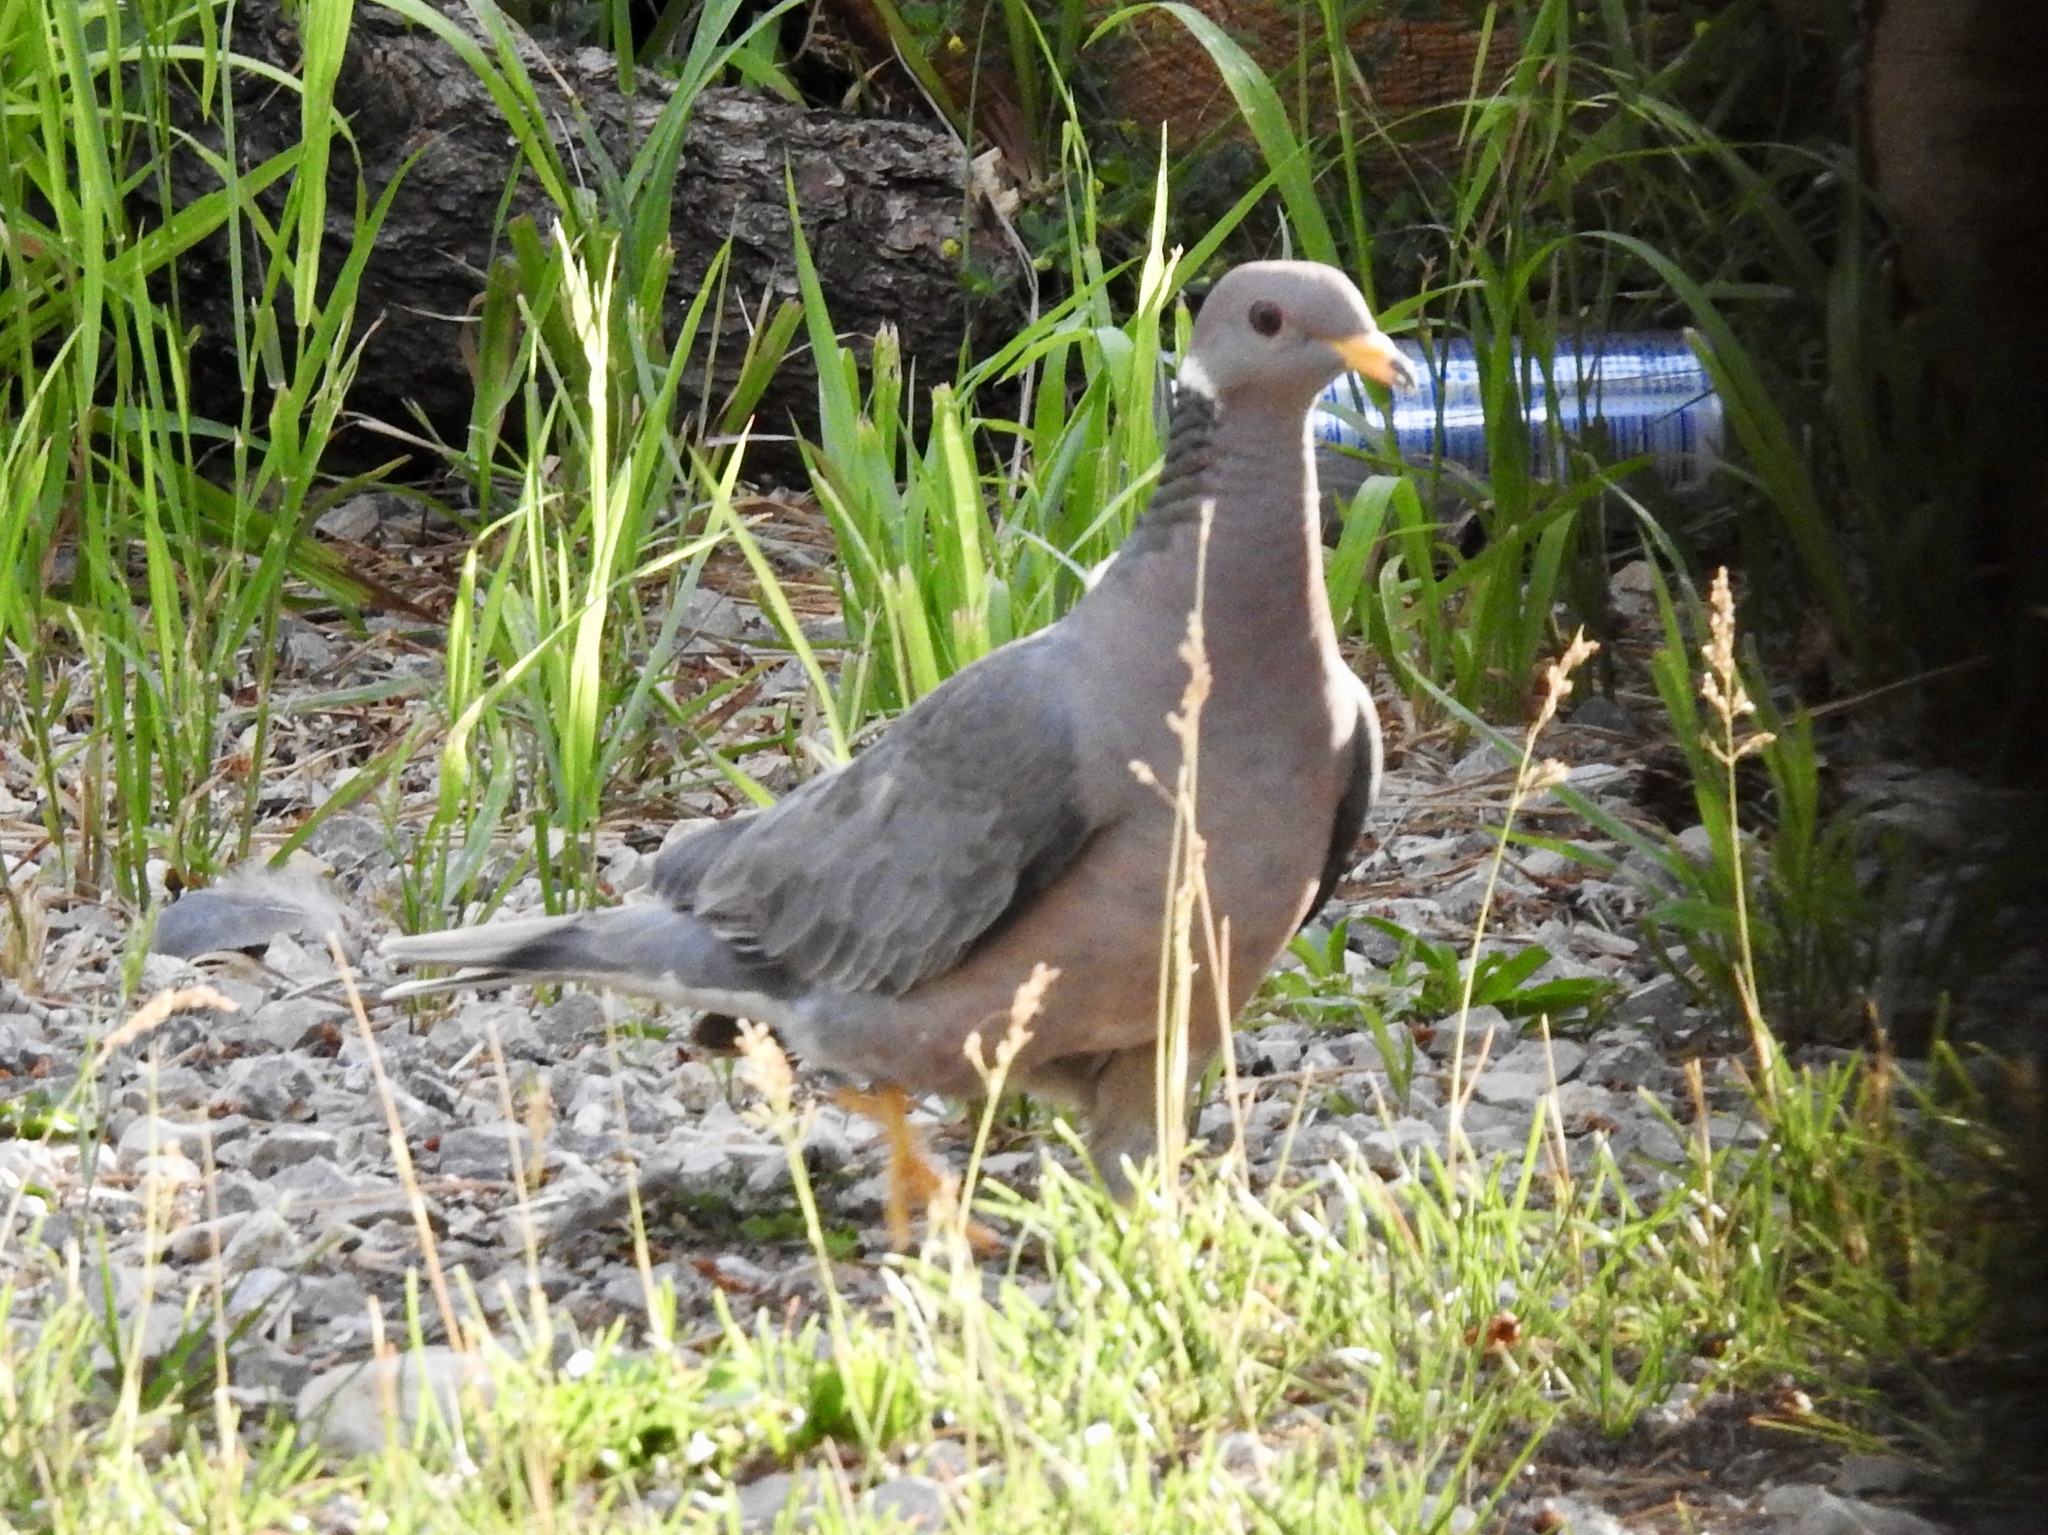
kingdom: Animalia
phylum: Chordata
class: Aves
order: Columbiformes
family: Columbidae
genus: Patagioenas
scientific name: Patagioenas fasciata
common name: Band-tailed pigeon
